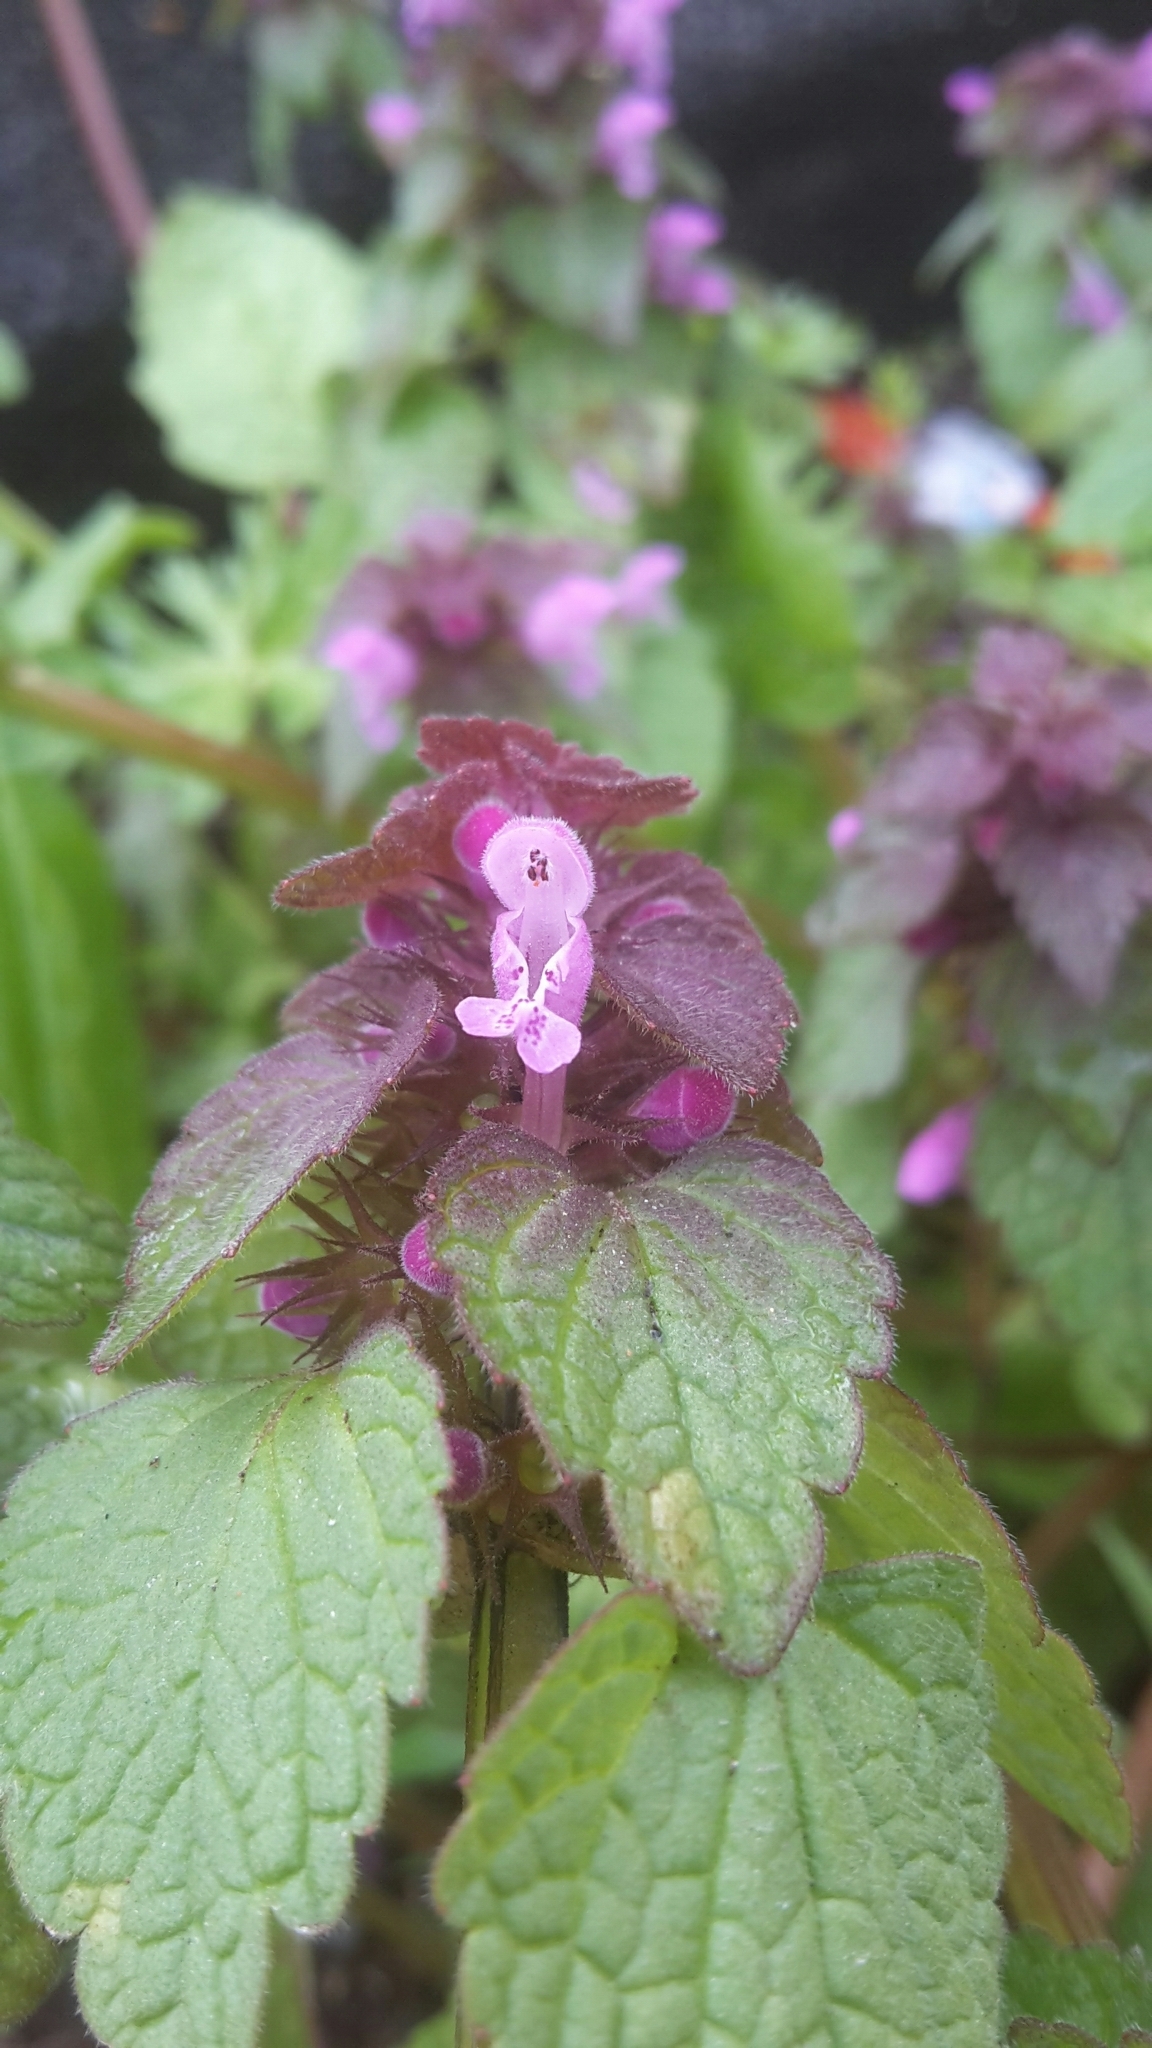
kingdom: Plantae
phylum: Tracheophyta
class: Magnoliopsida
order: Lamiales
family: Lamiaceae
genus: Lamium
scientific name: Lamium purpureum
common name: Red dead-nettle
